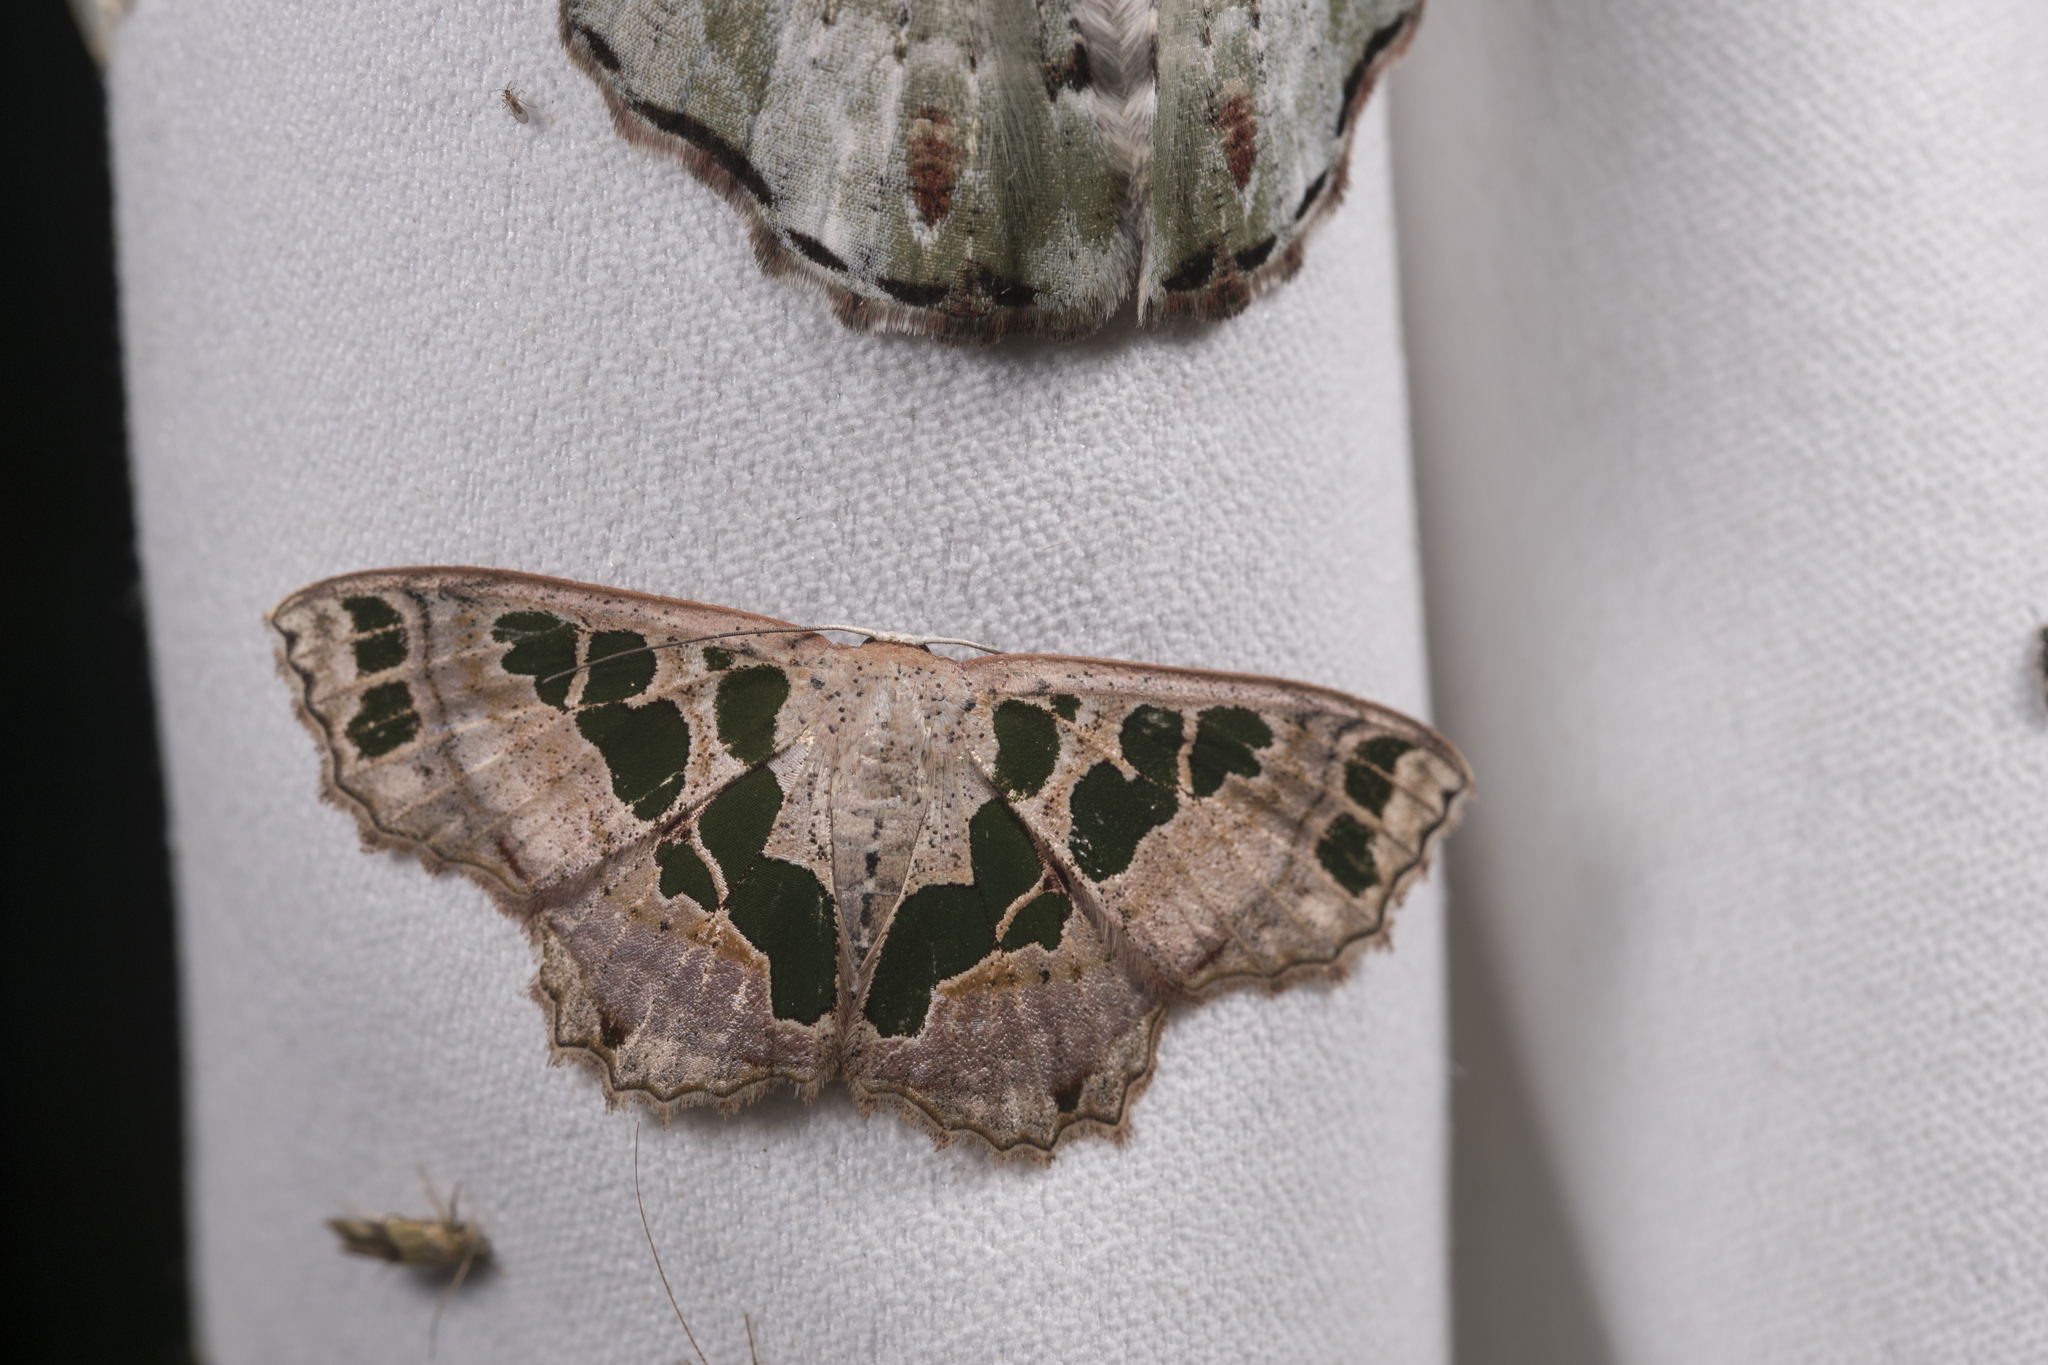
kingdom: Animalia
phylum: Arthropoda
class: Insecta
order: Lepidoptera
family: Geometridae
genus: Scopula
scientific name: Scopula divisaria
